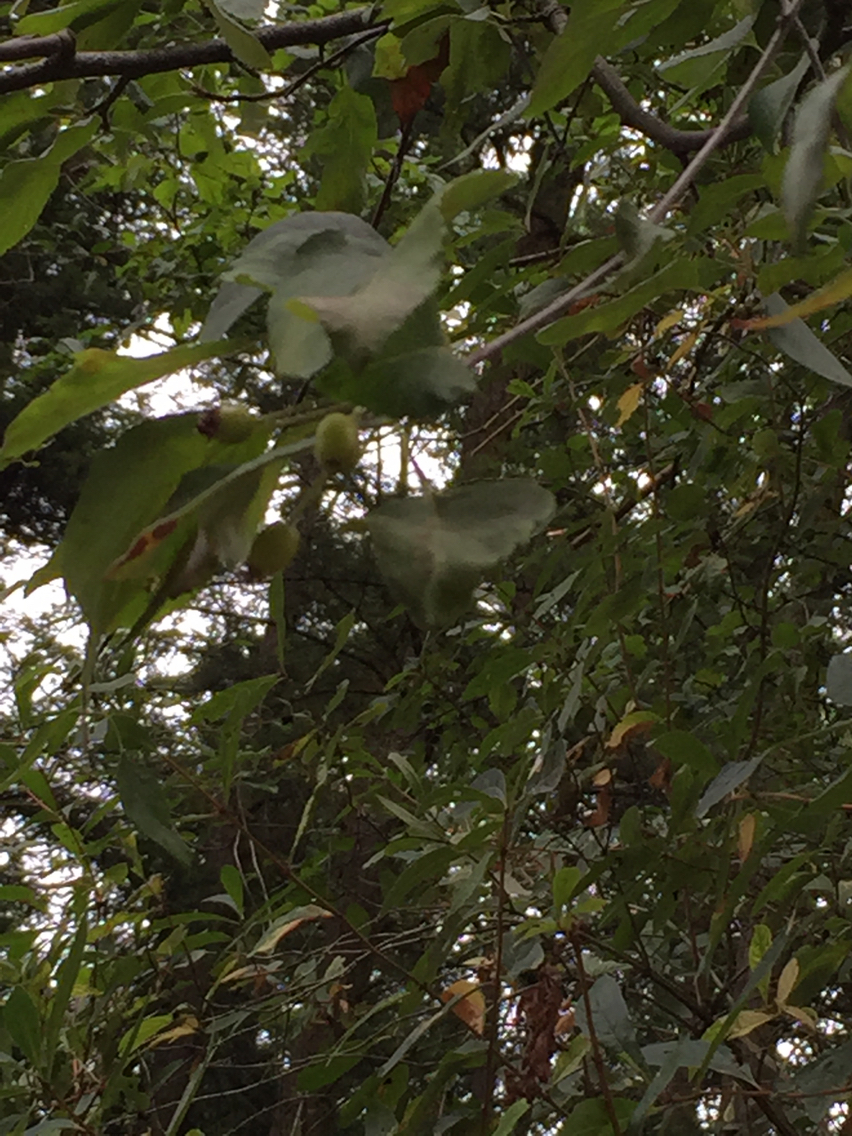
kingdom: Plantae
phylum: Tracheophyta
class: Magnoliopsida
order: Rosales
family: Rosaceae
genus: Malus
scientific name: Malus fusca
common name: Oregon crab apple
